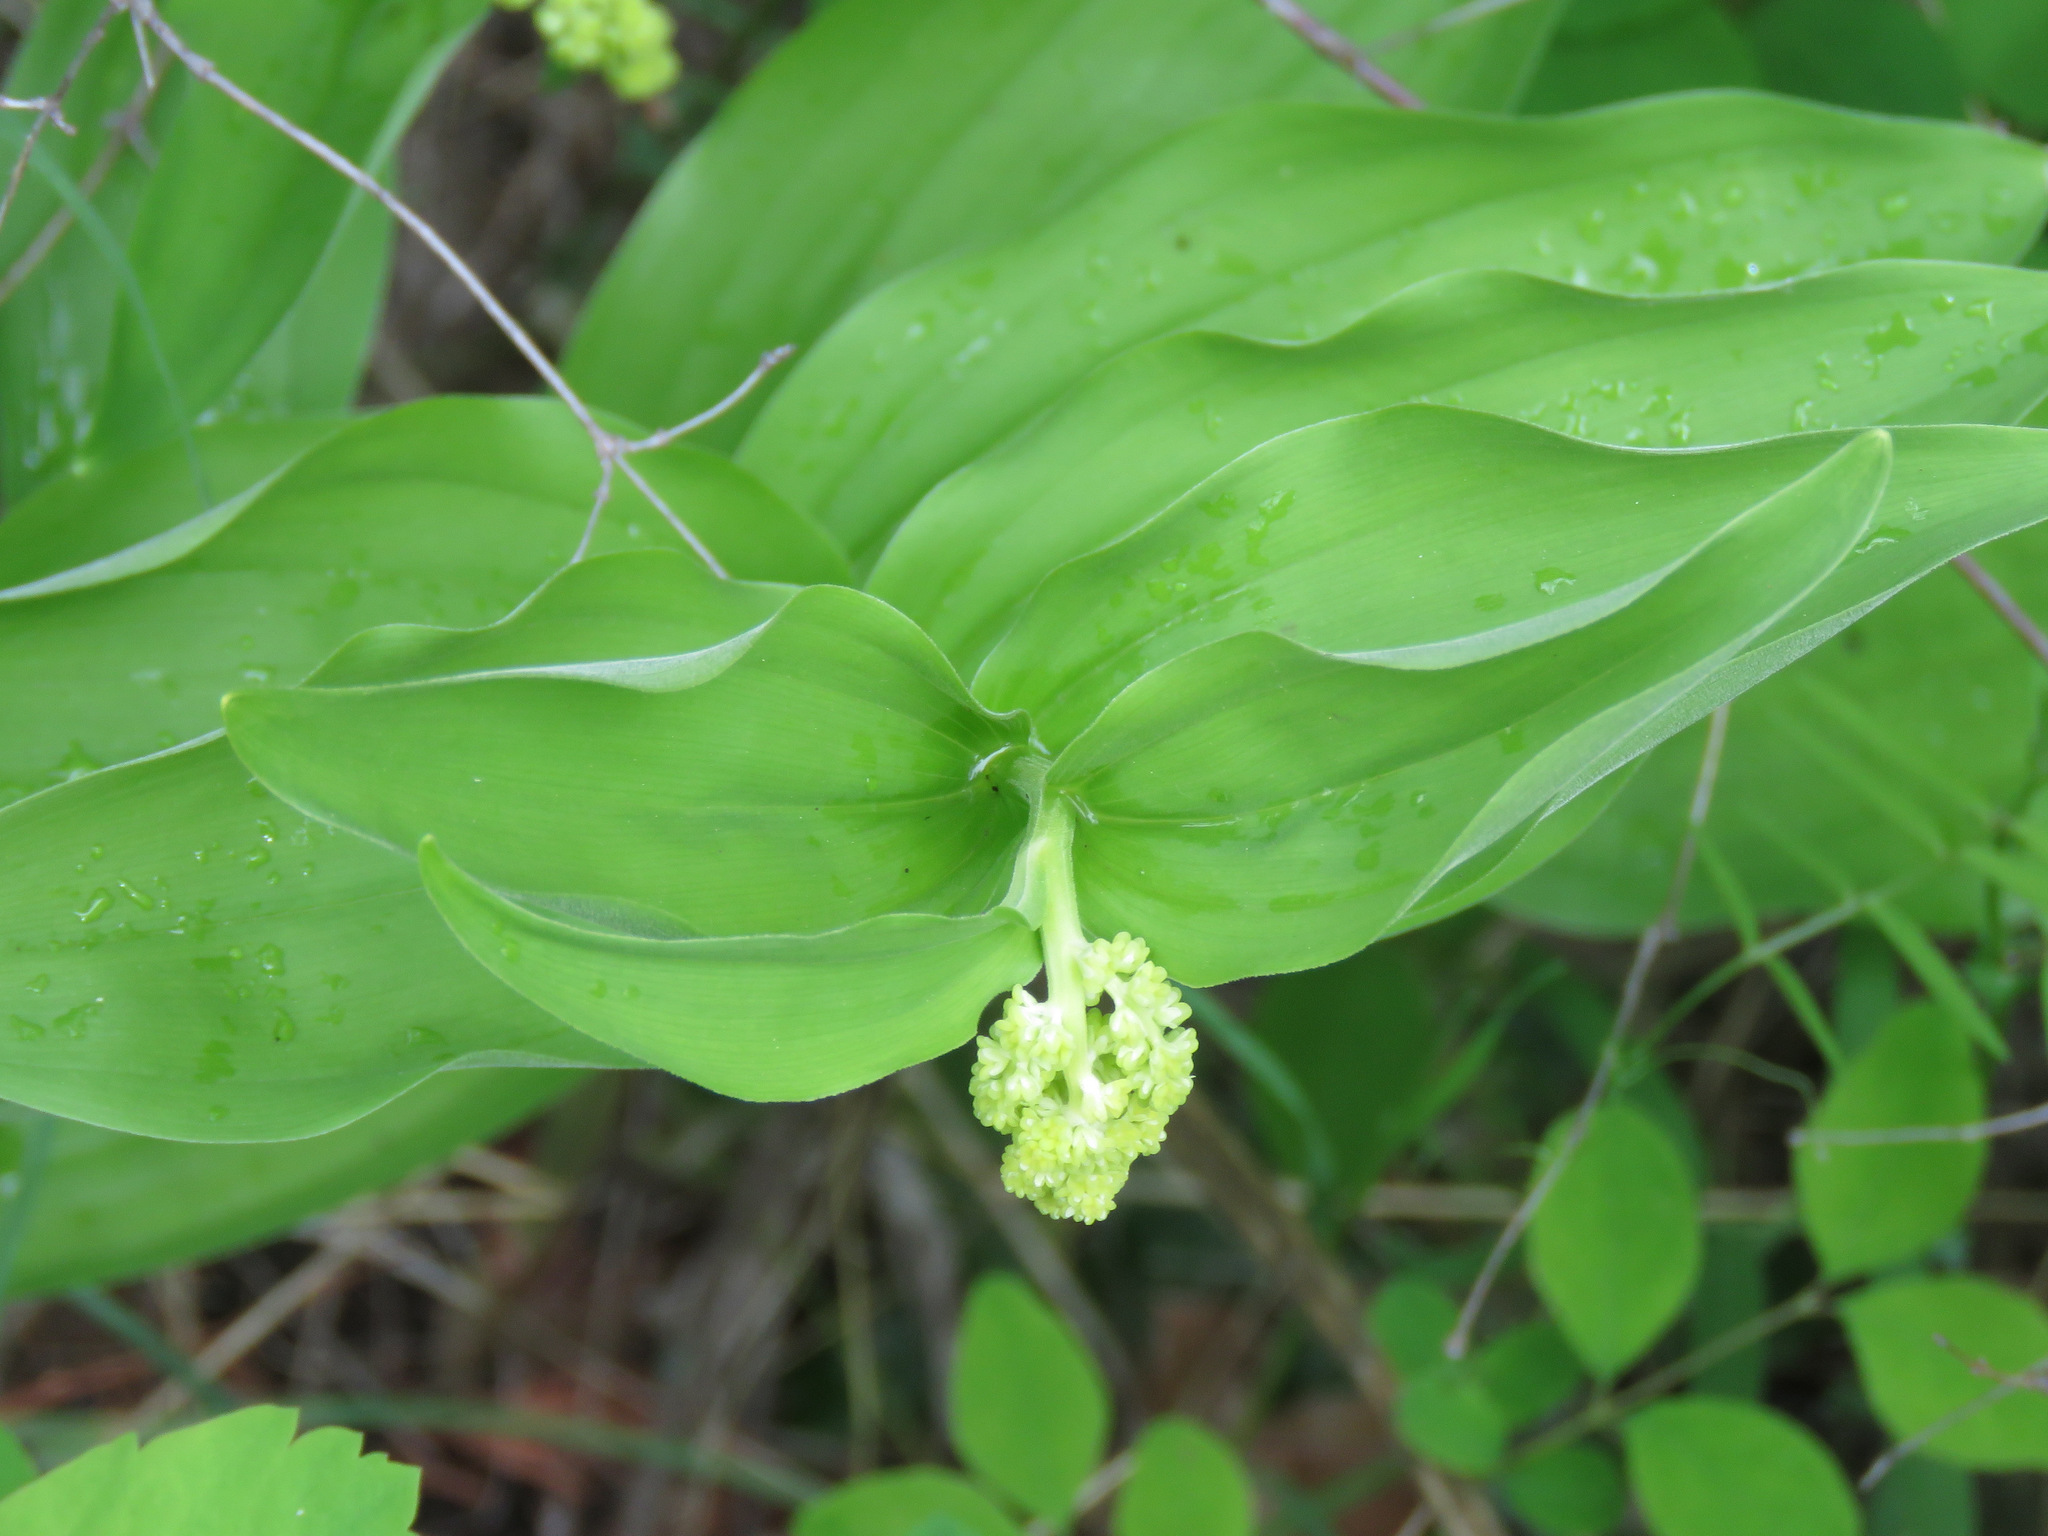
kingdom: Plantae
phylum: Tracheophyta
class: Liliopsida
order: Asparagales
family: Asparagaceae
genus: Maianthemum
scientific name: Maianthemum racemosum
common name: False spikenard
